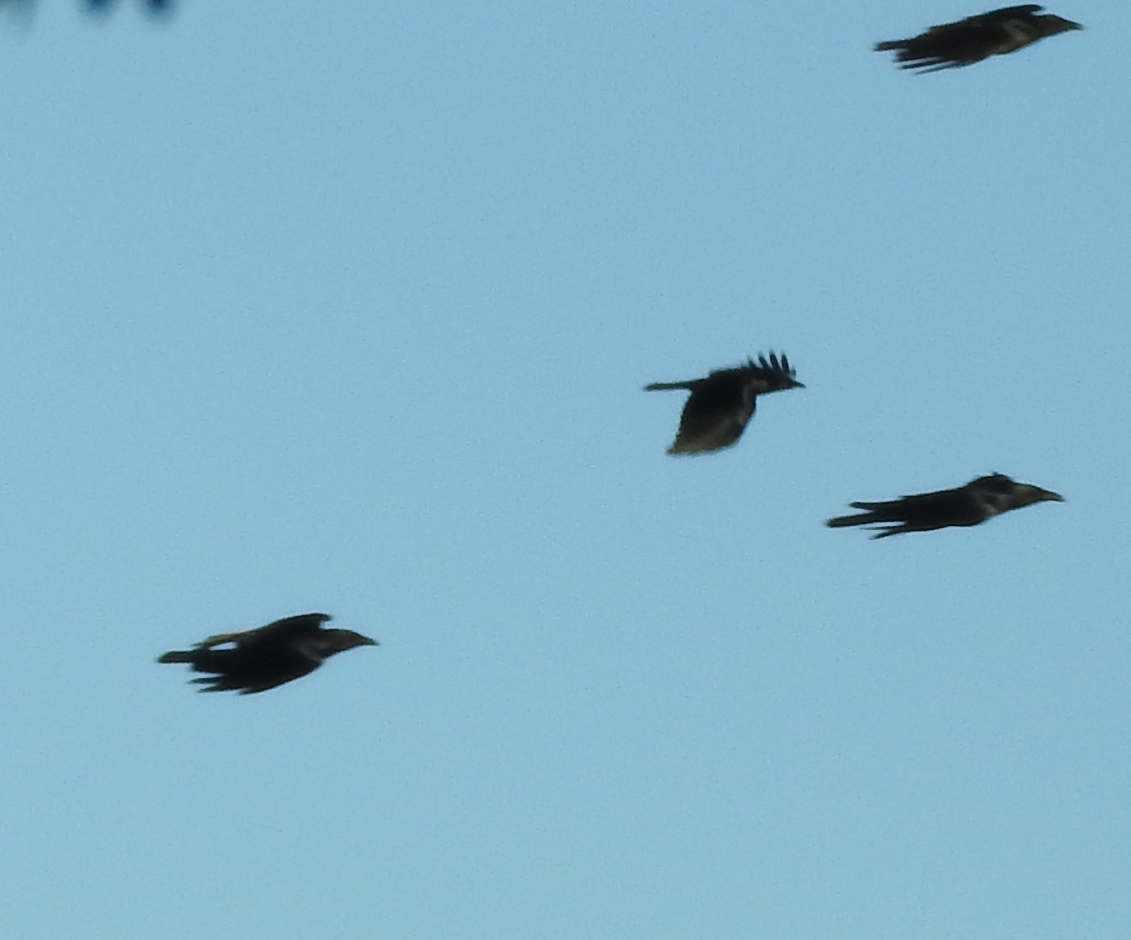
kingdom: Animalia
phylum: Chordata
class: Aves
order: Passeriformes
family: Corvidae
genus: Corvus
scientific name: Corvus sinaloae
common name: Sinaloa crow
